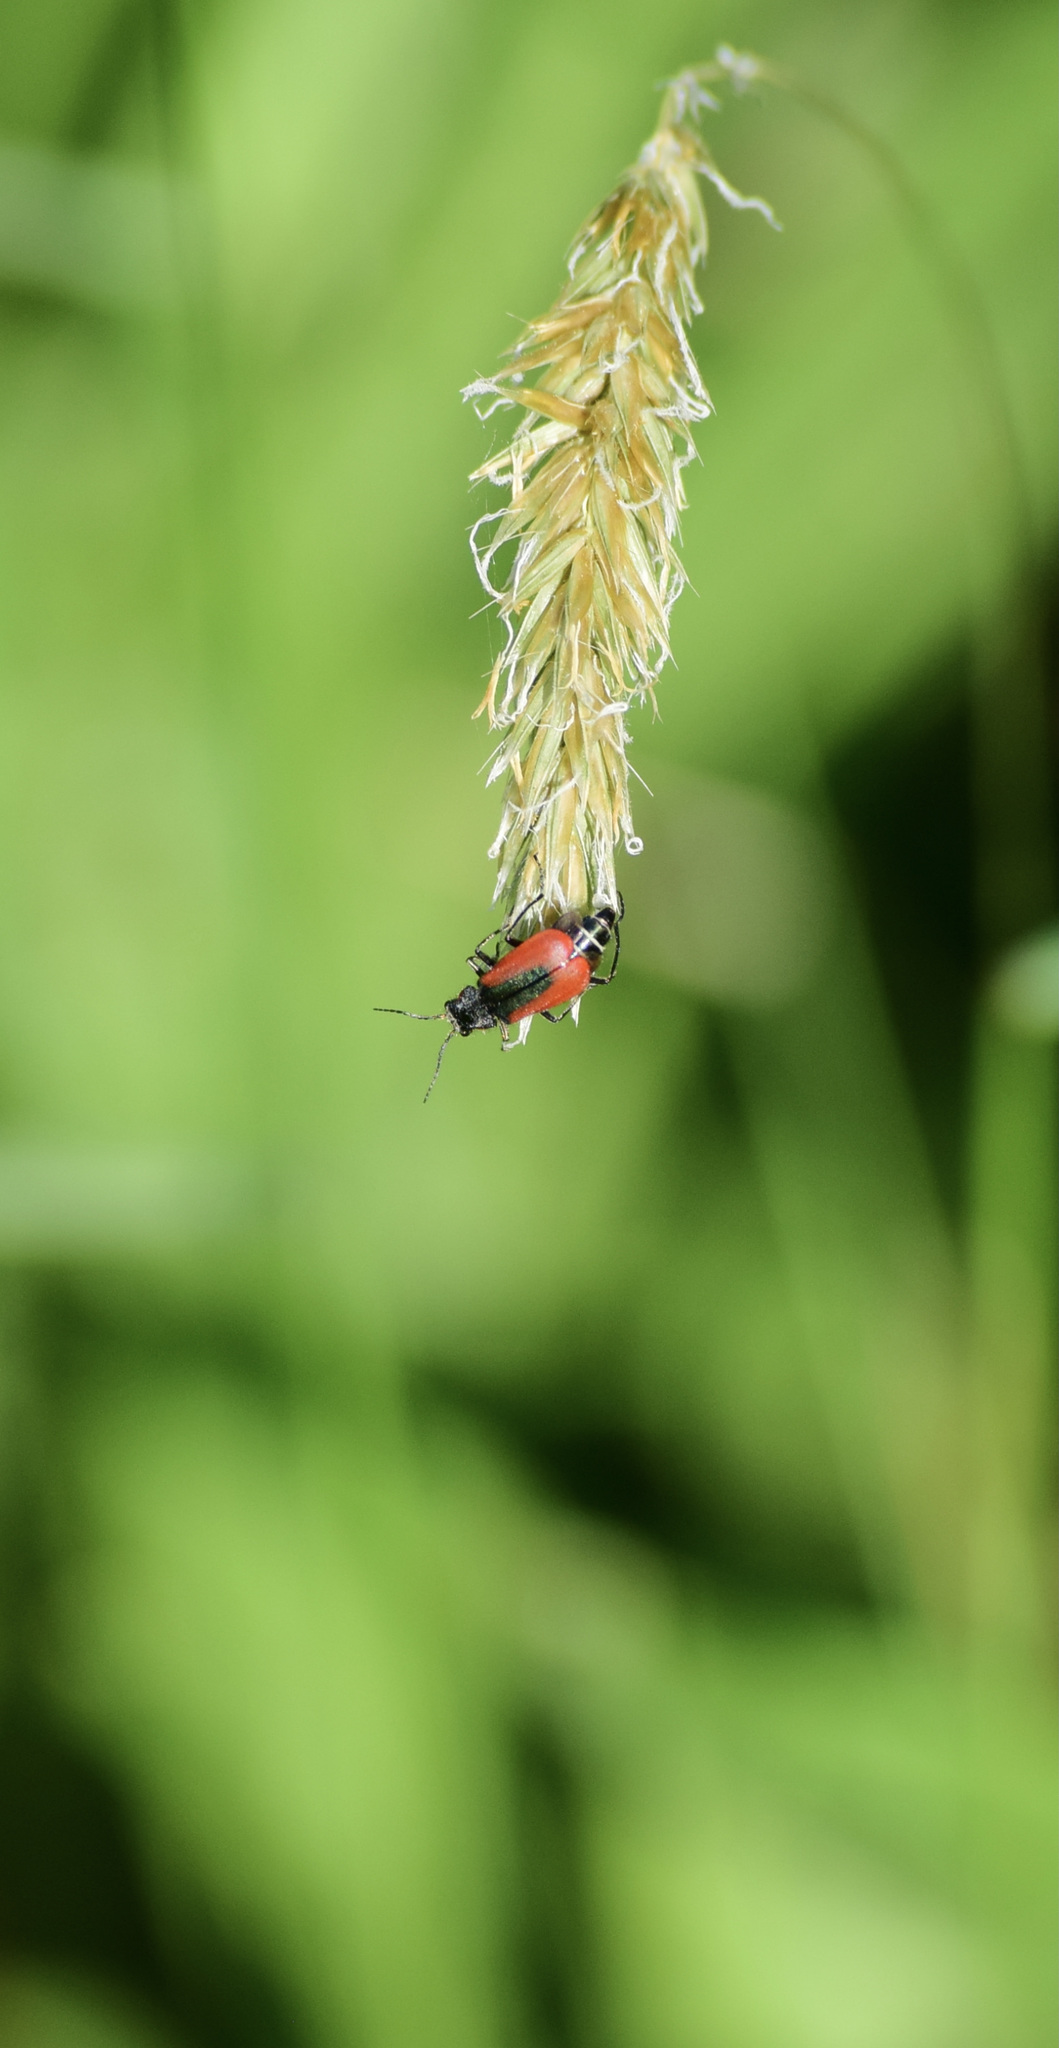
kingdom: Animalia
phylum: Arthropoda
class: Insecta
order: Coleoptera
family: Melyridae
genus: Malachius
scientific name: Malachius aeneus
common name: Scarlet malachite beetle
